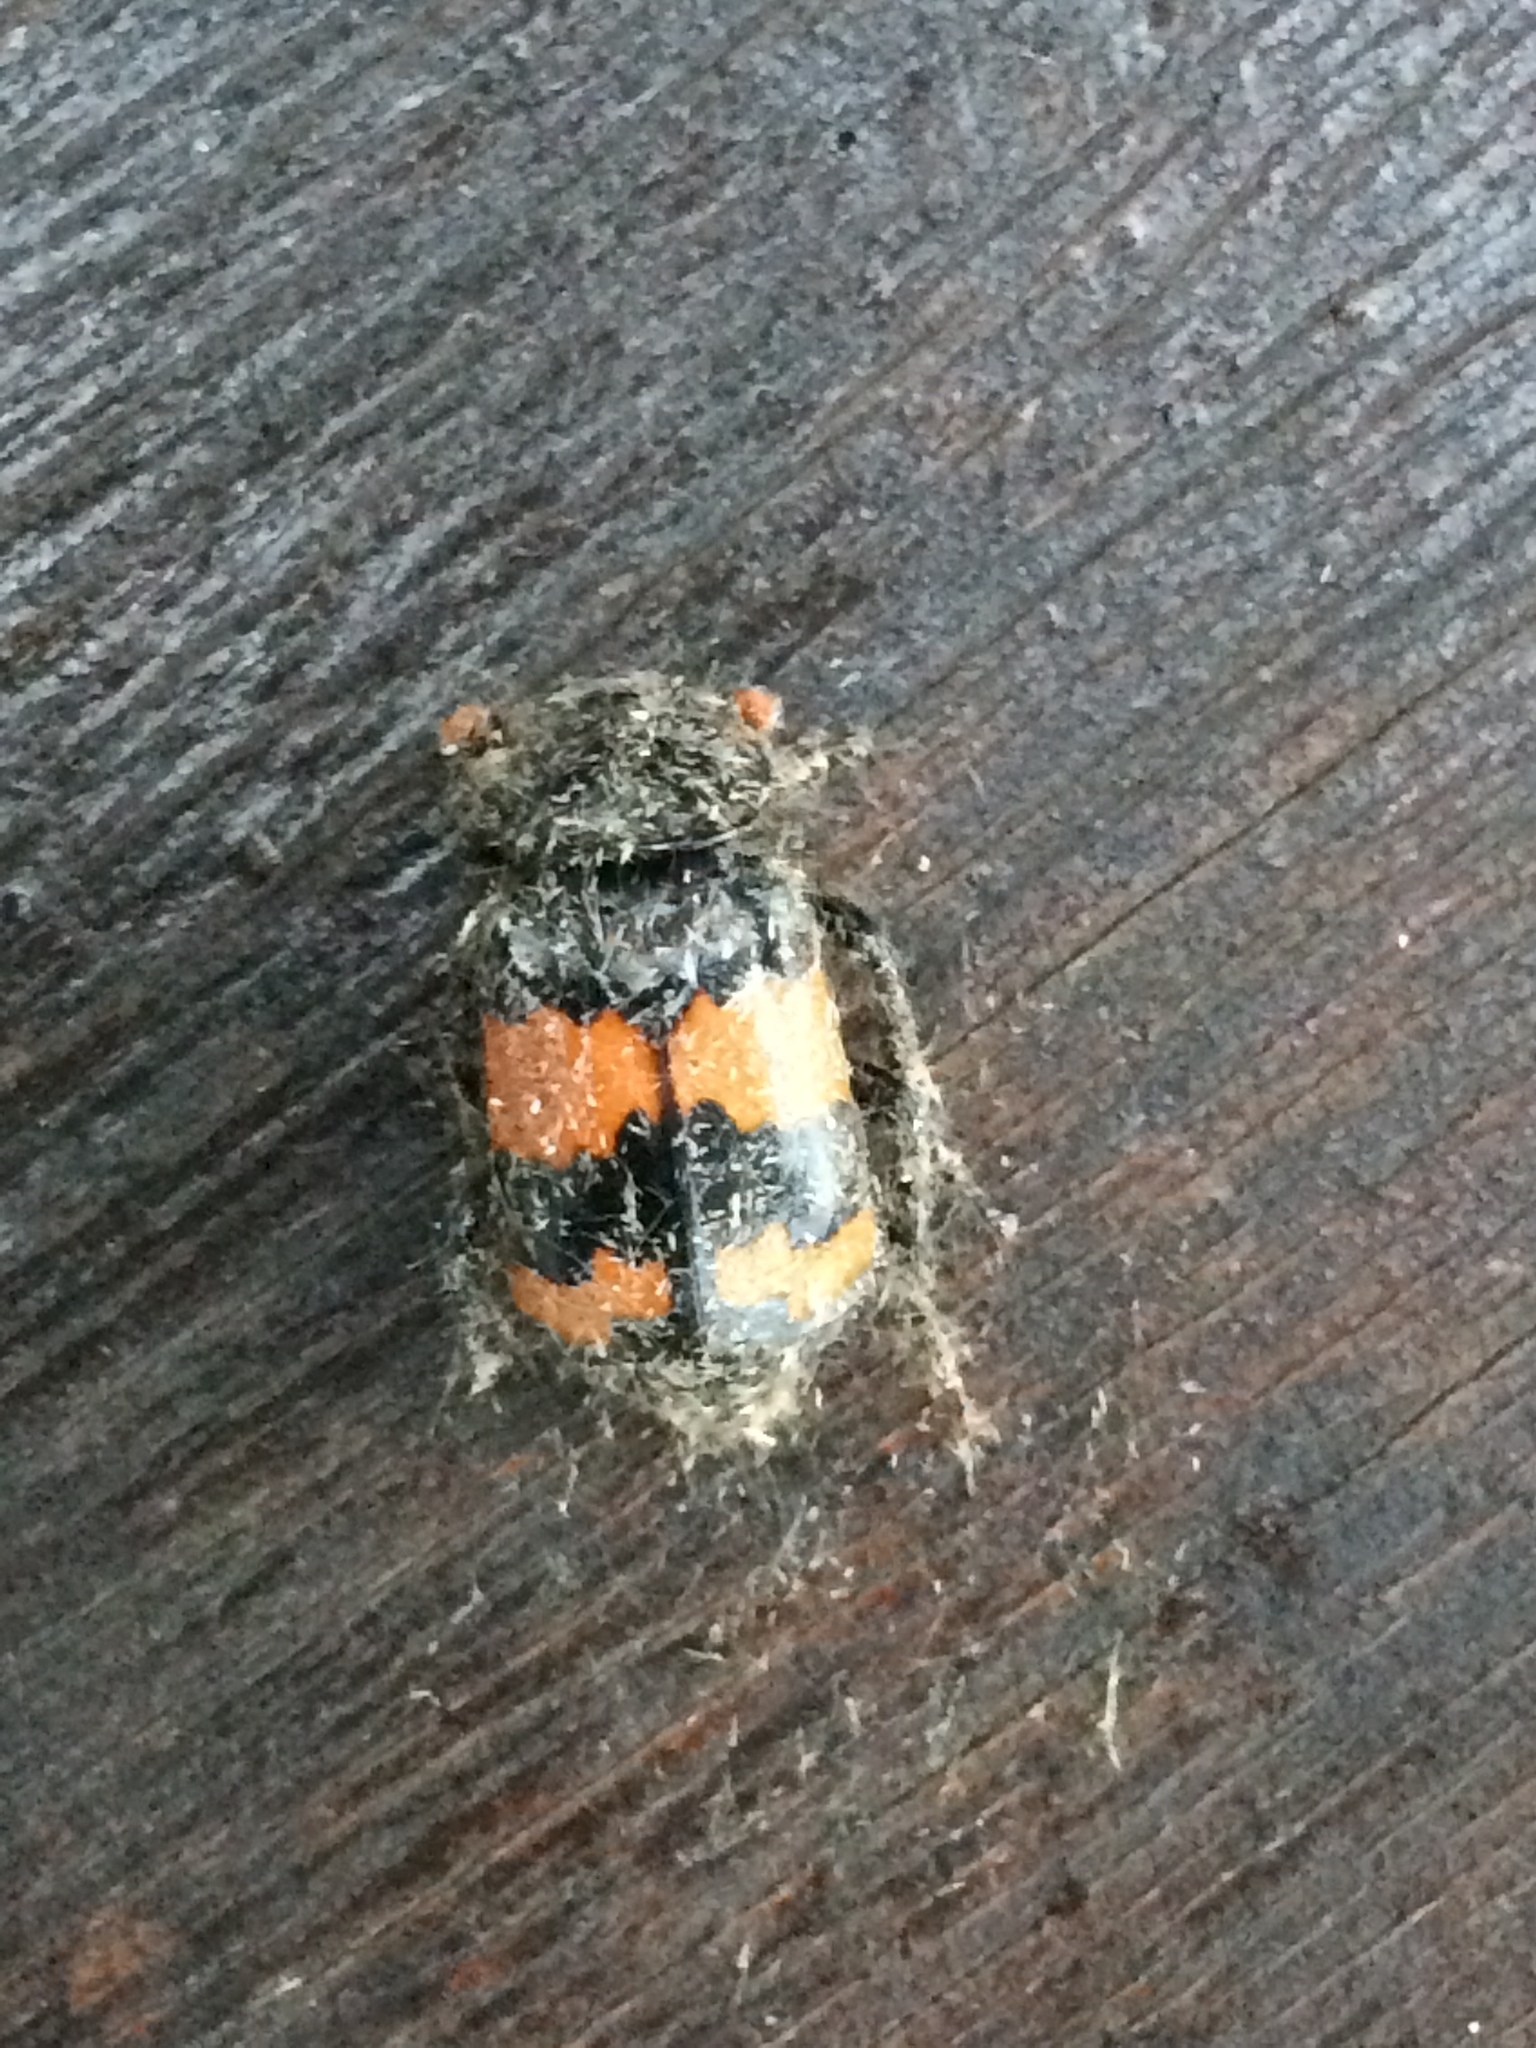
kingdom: Animalia
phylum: Arthropoda
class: Insecta
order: Coleoptera
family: Staphylinidae
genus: Nicrophorus
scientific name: Nicrophorus investigator
